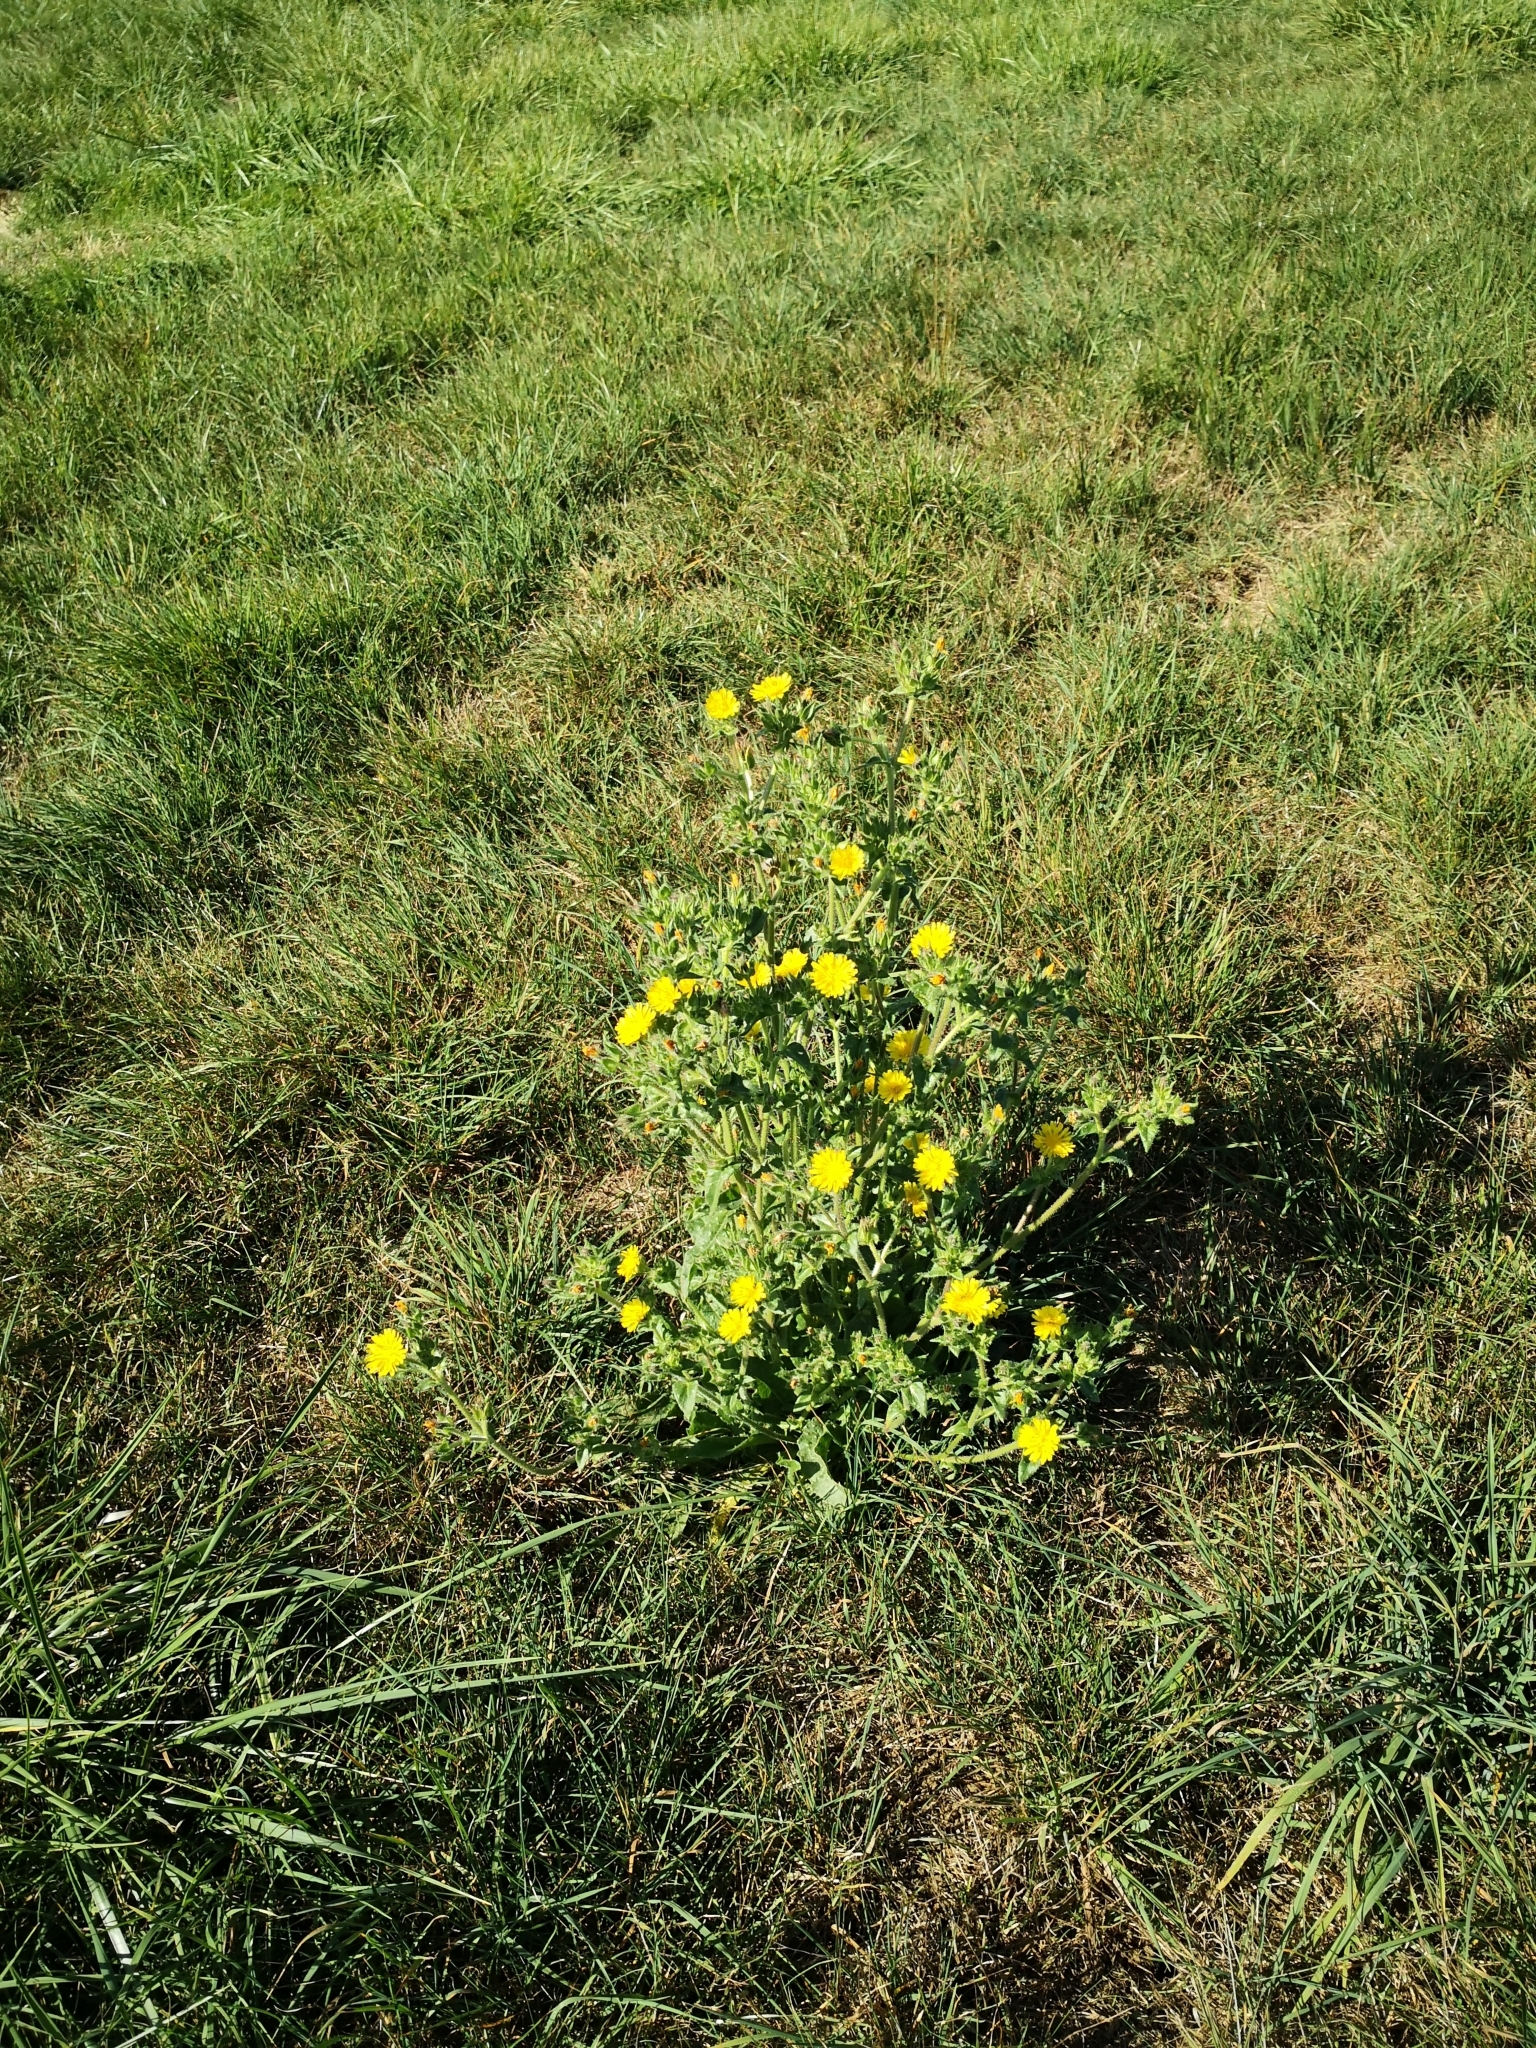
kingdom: Plantae
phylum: Tracheophyta
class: Magnoliopsida
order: Asterales
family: Asteraceae
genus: Helminthotheca
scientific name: Helminthotheca echioides
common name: Ox-tongue
